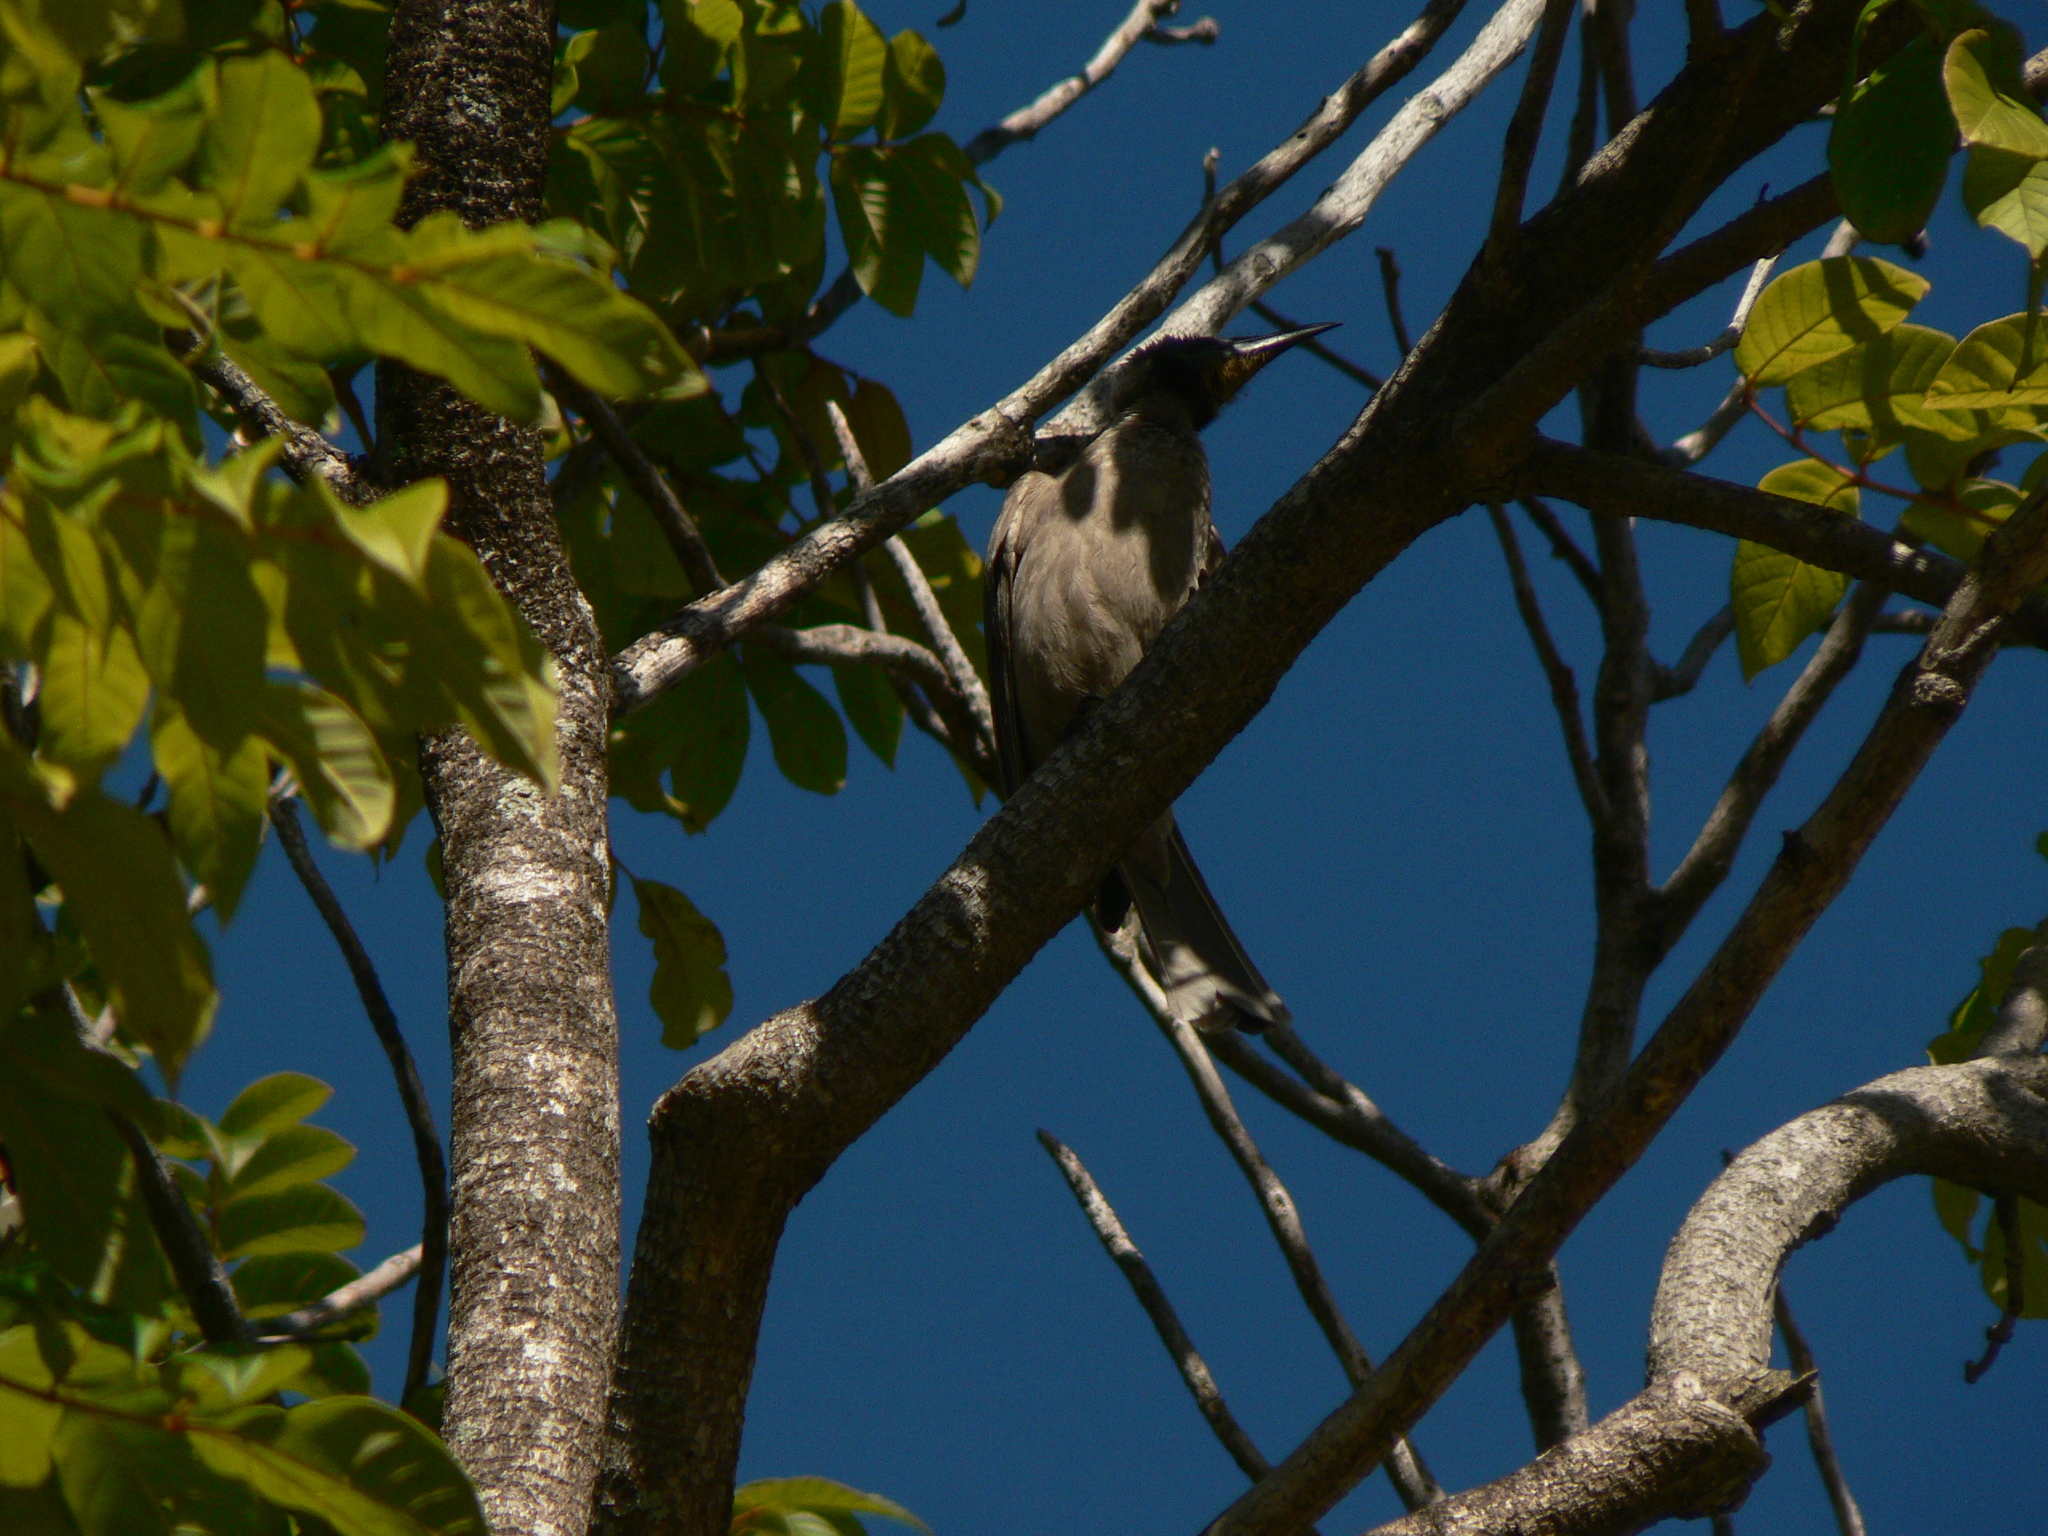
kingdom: Animalia
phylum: Chordata
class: Aves
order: Passeriformes
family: Meliphagidae
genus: Philemon
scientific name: Philemon argenticeps
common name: Silver-crowned friarbird
